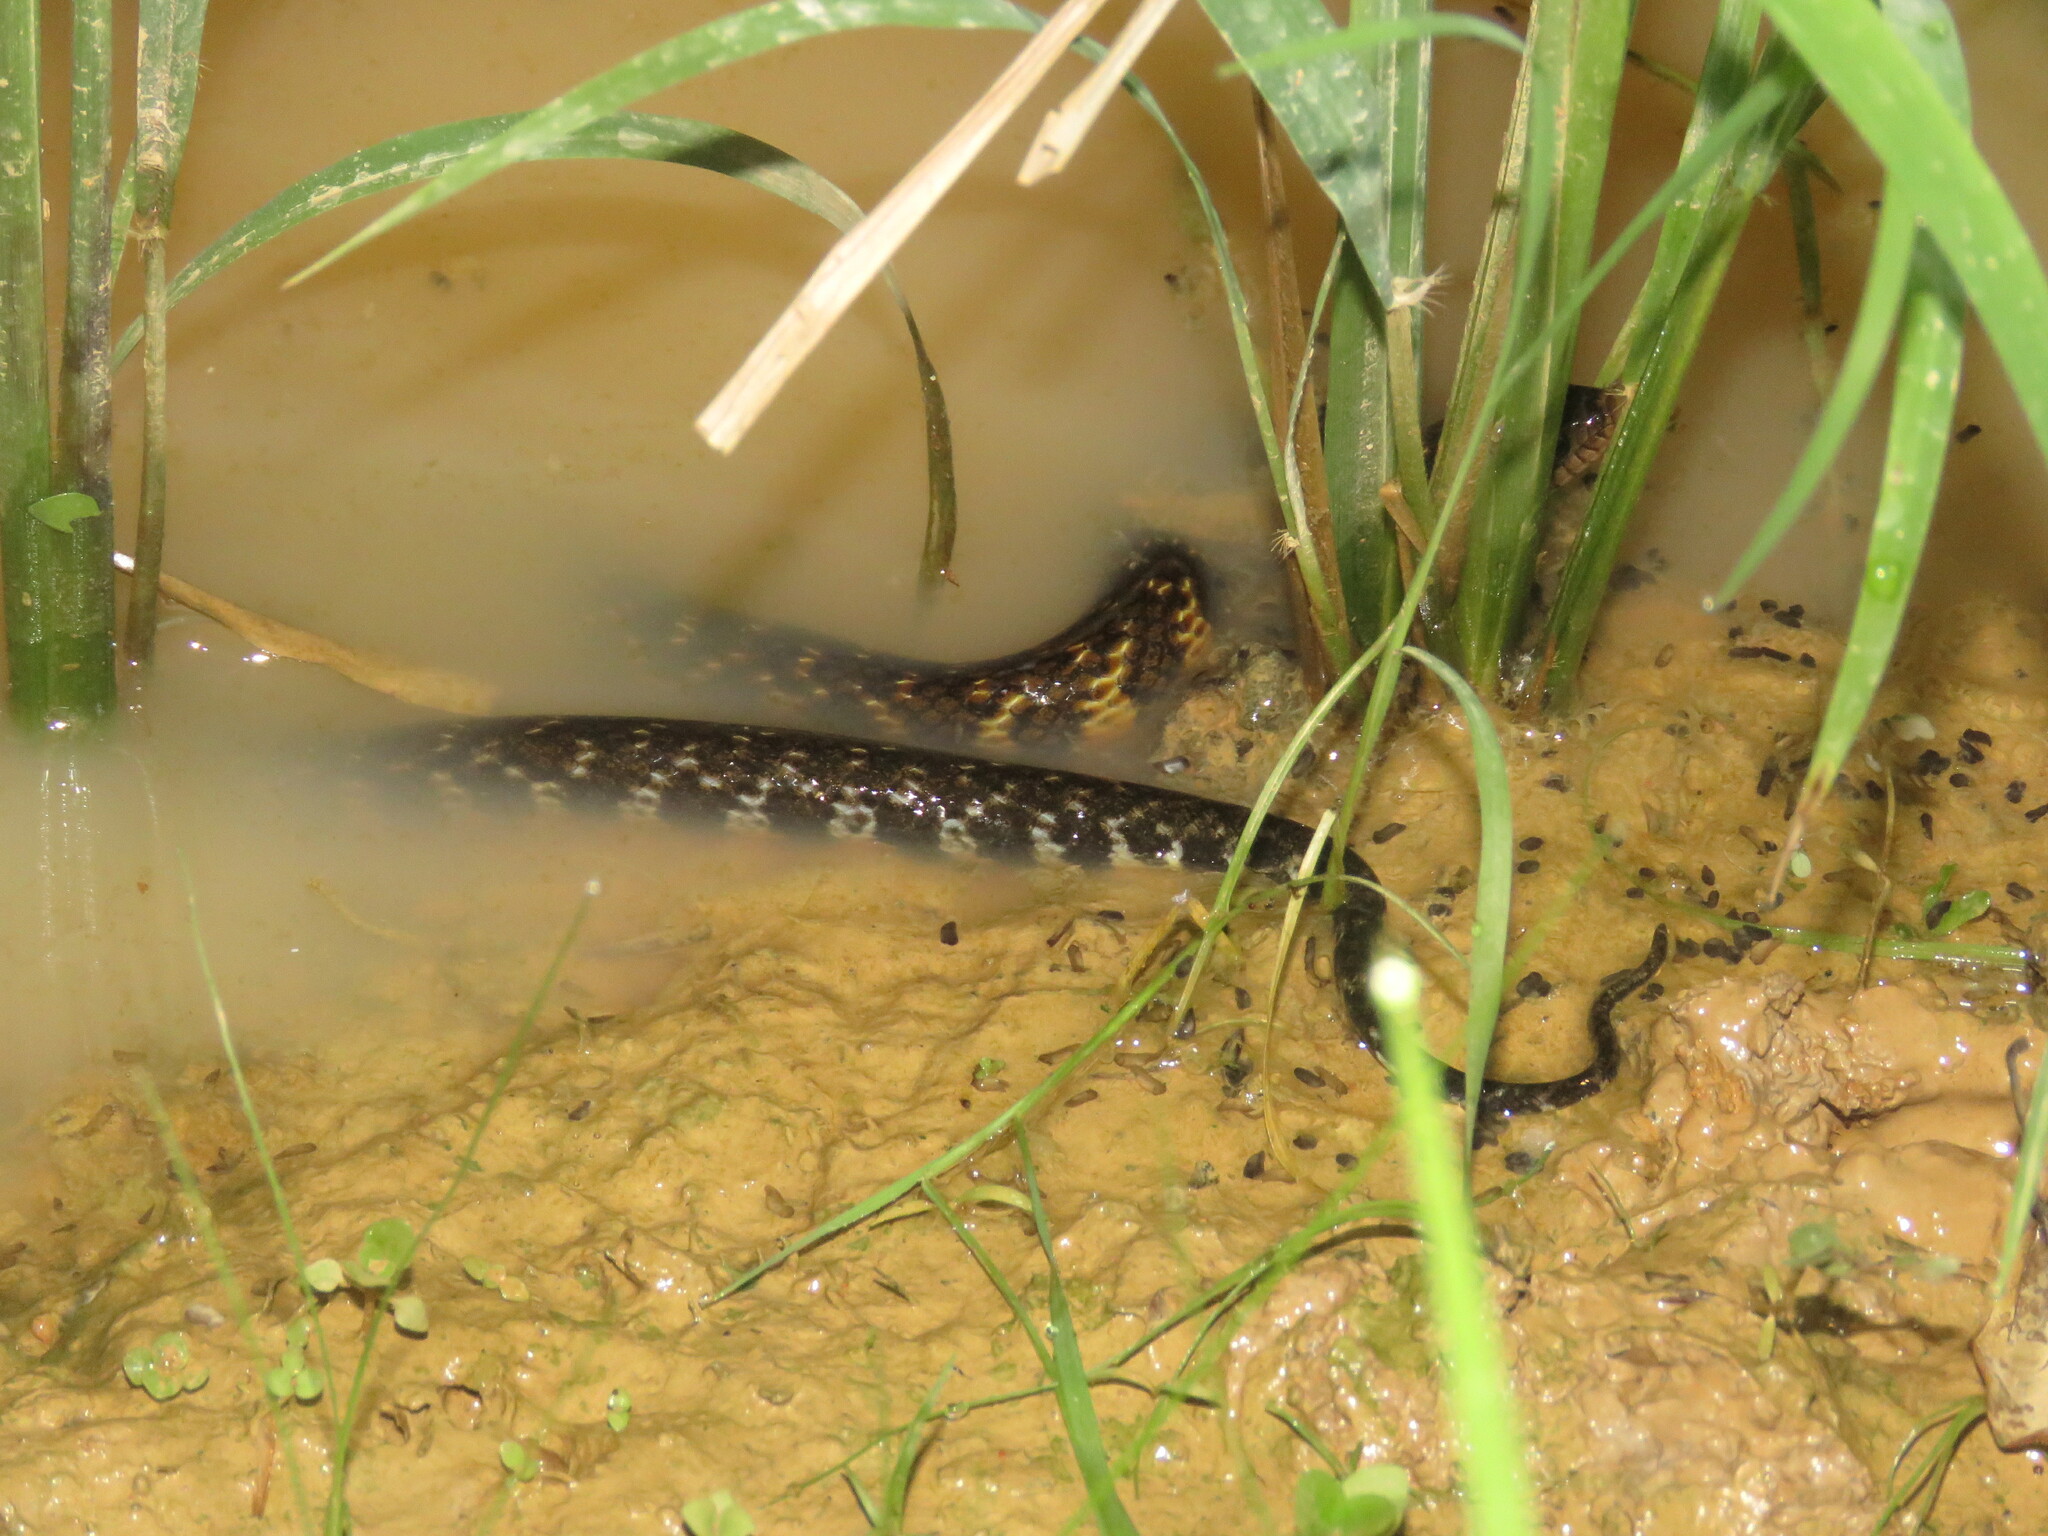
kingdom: Animalia
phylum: Chordata
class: Squamata
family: Colubridae
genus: Erythrolamprus
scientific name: Erythrolamprus taeniogaster
